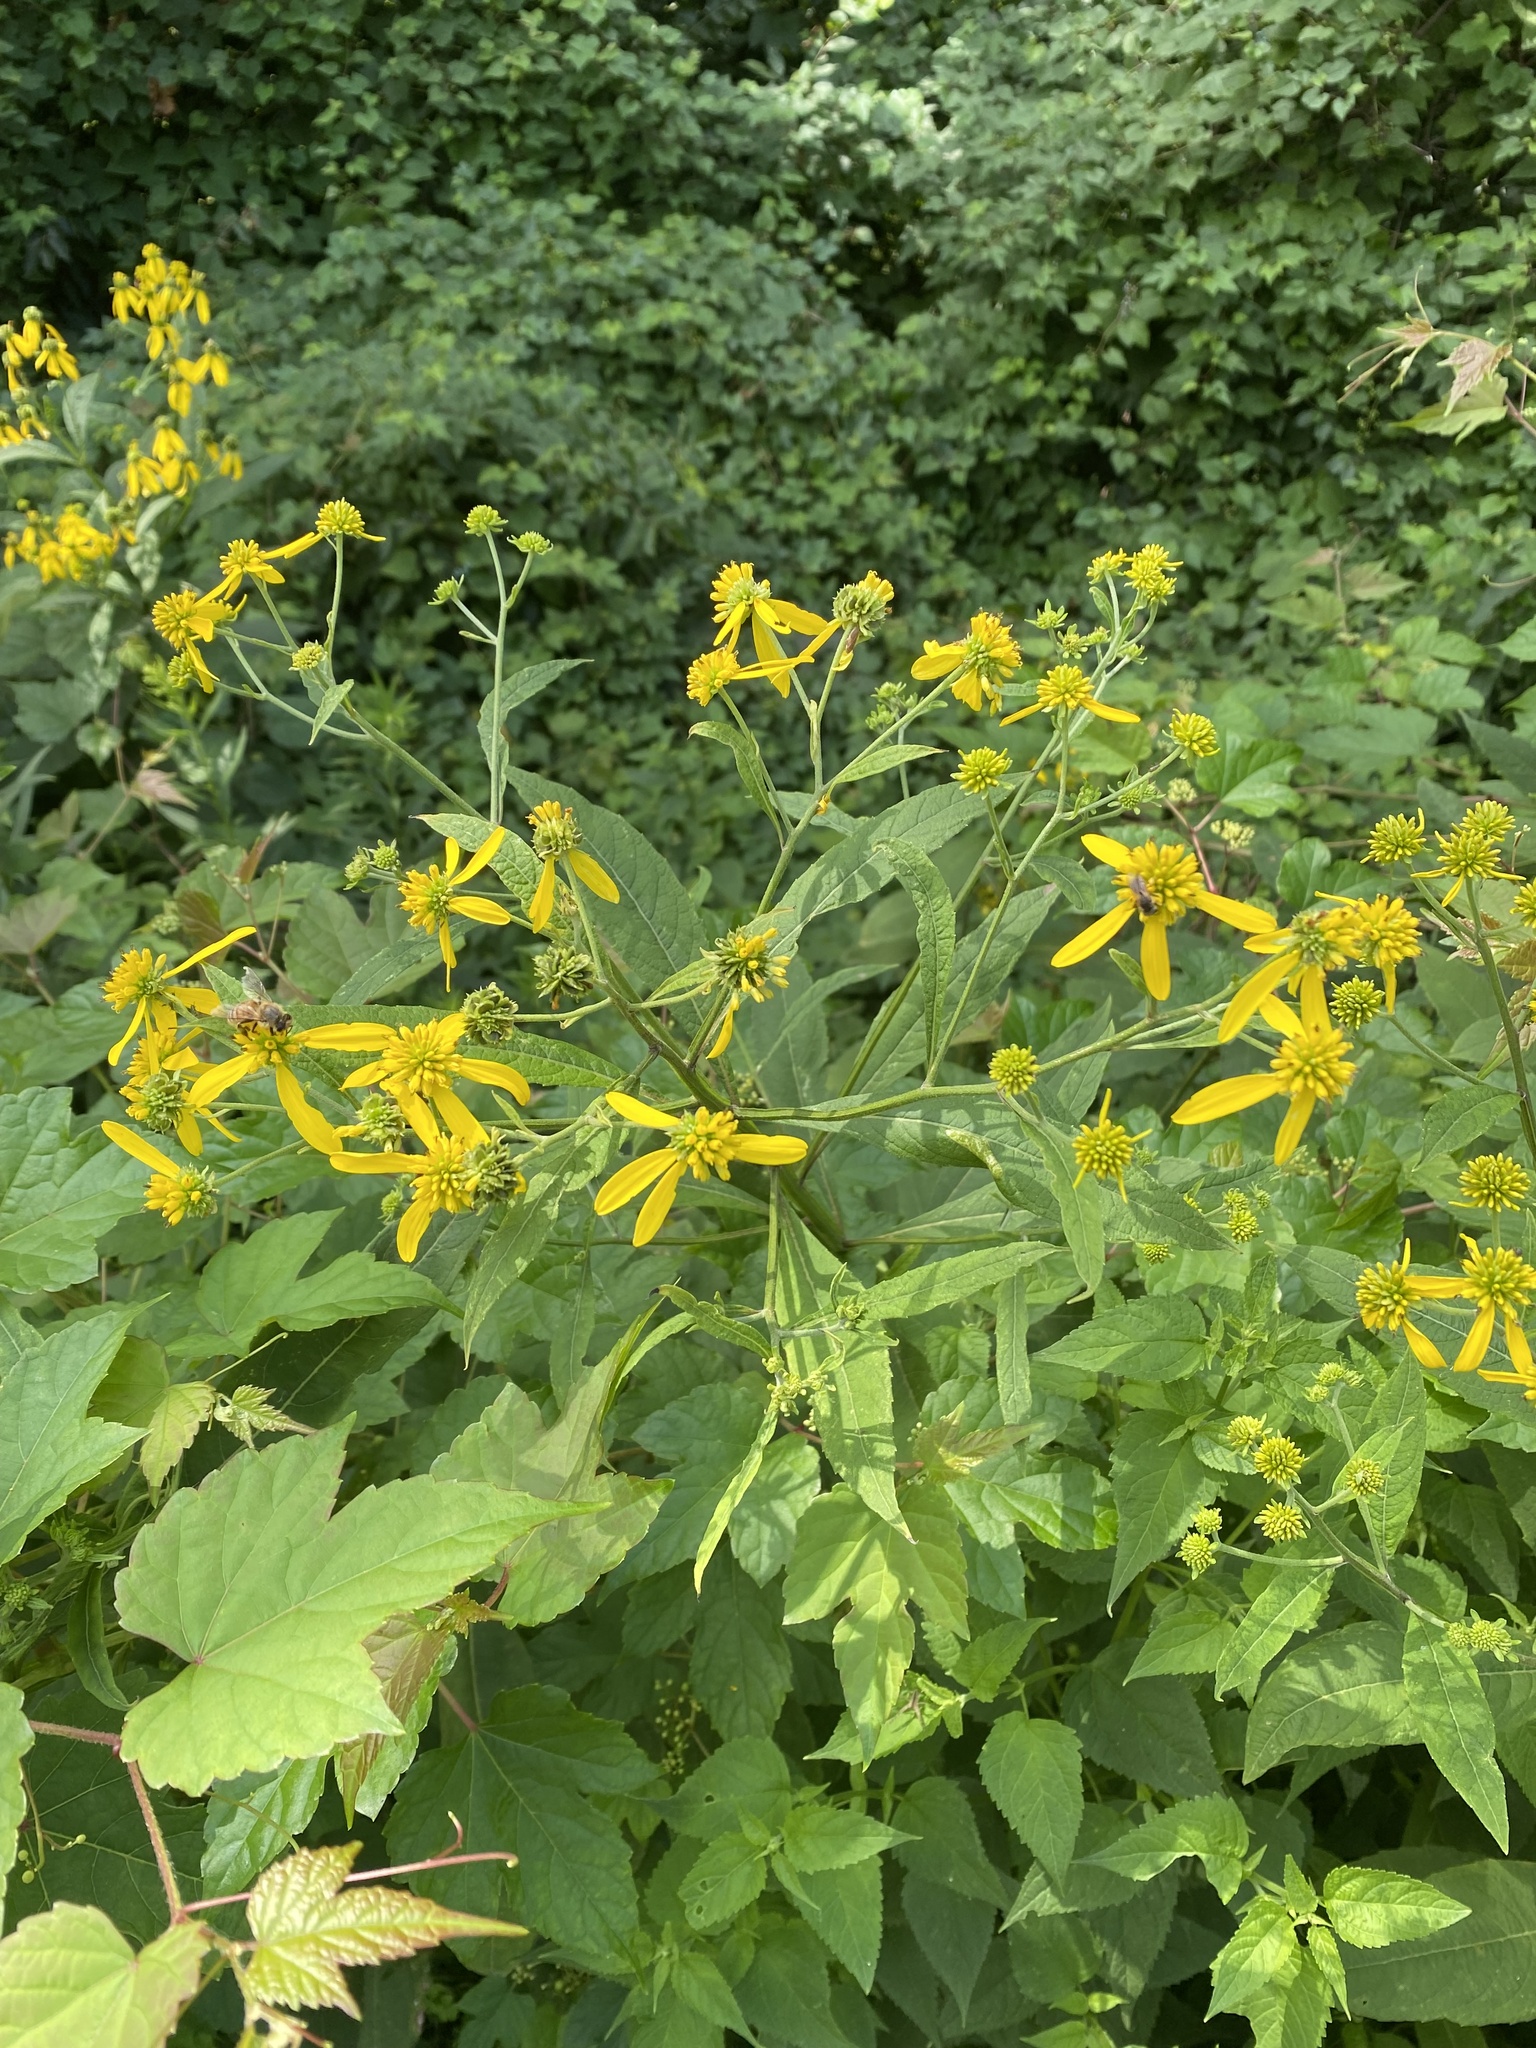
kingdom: Plantae
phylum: Tracheophyta
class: Magnoliopsida
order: Asterales
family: Asteraceae
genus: Verbesina
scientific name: Verbesina alternifolia
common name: Wingstem
